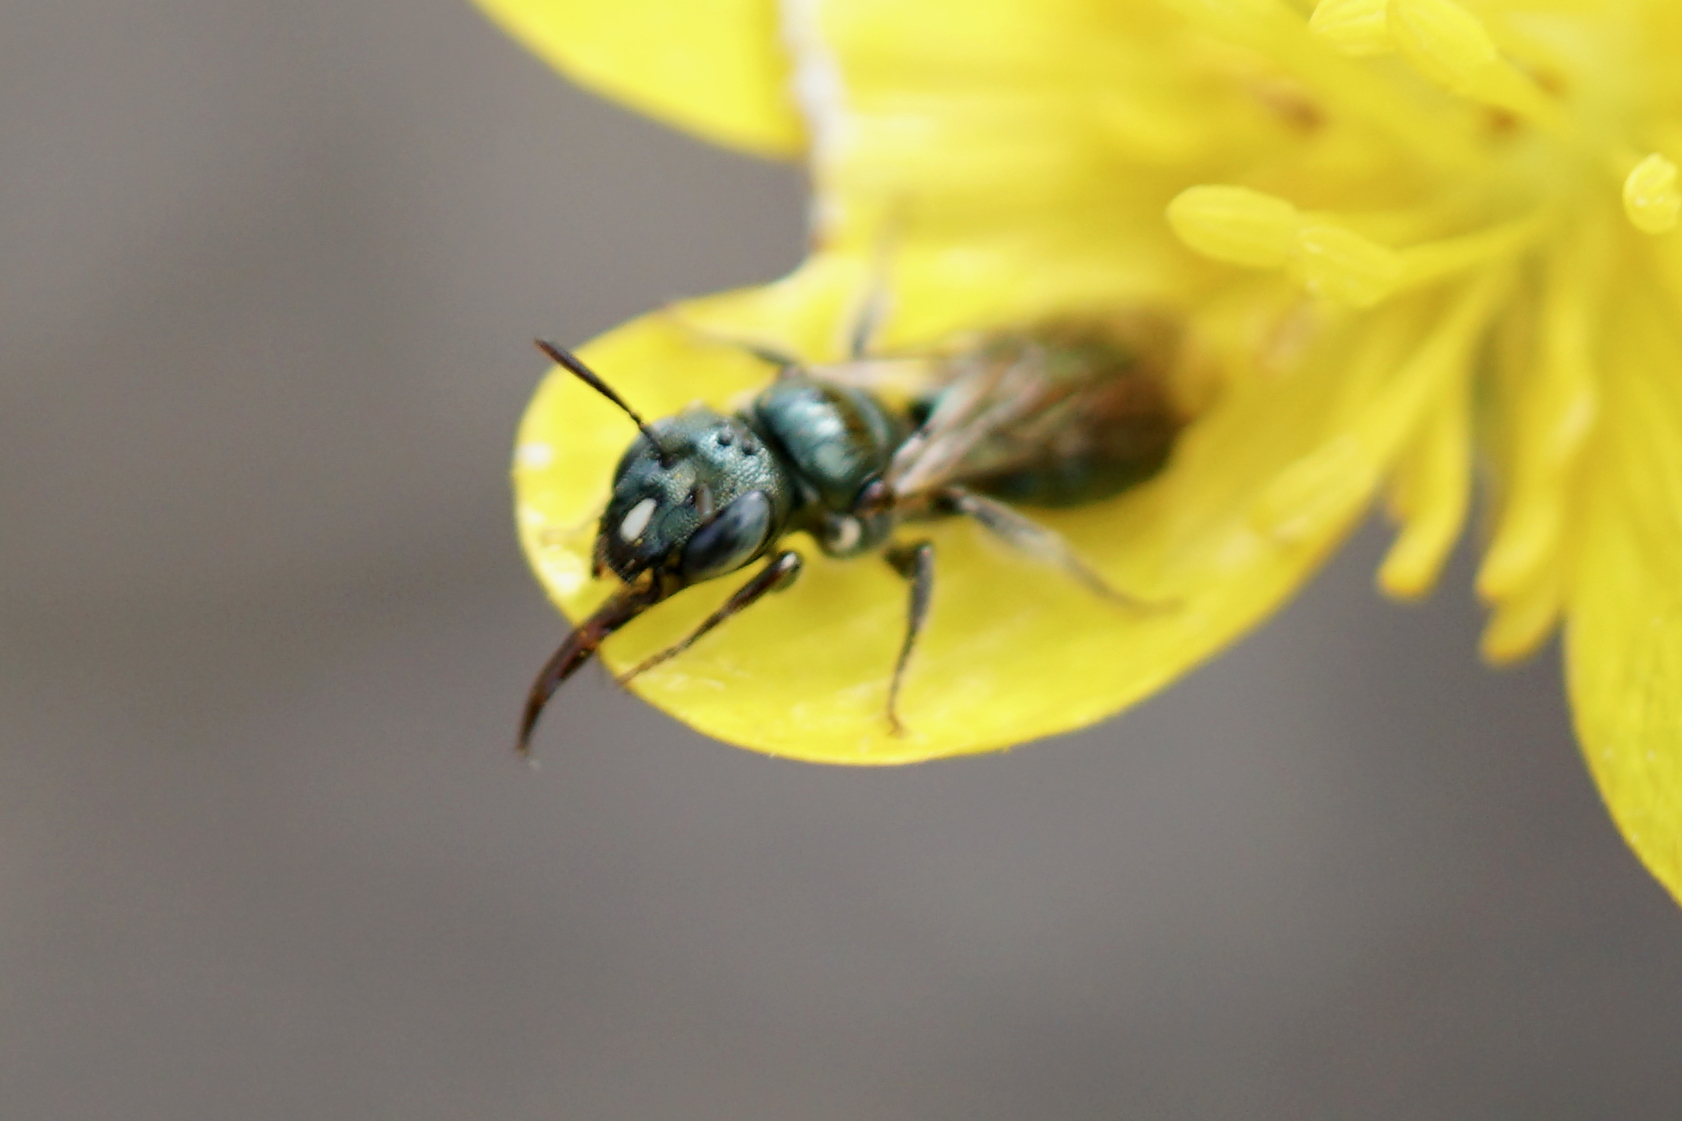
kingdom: Animalia
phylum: Arthropoda
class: Insecta
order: Hymenoptera
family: Apidae
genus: Zadontomerus
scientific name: Zadontomerus
